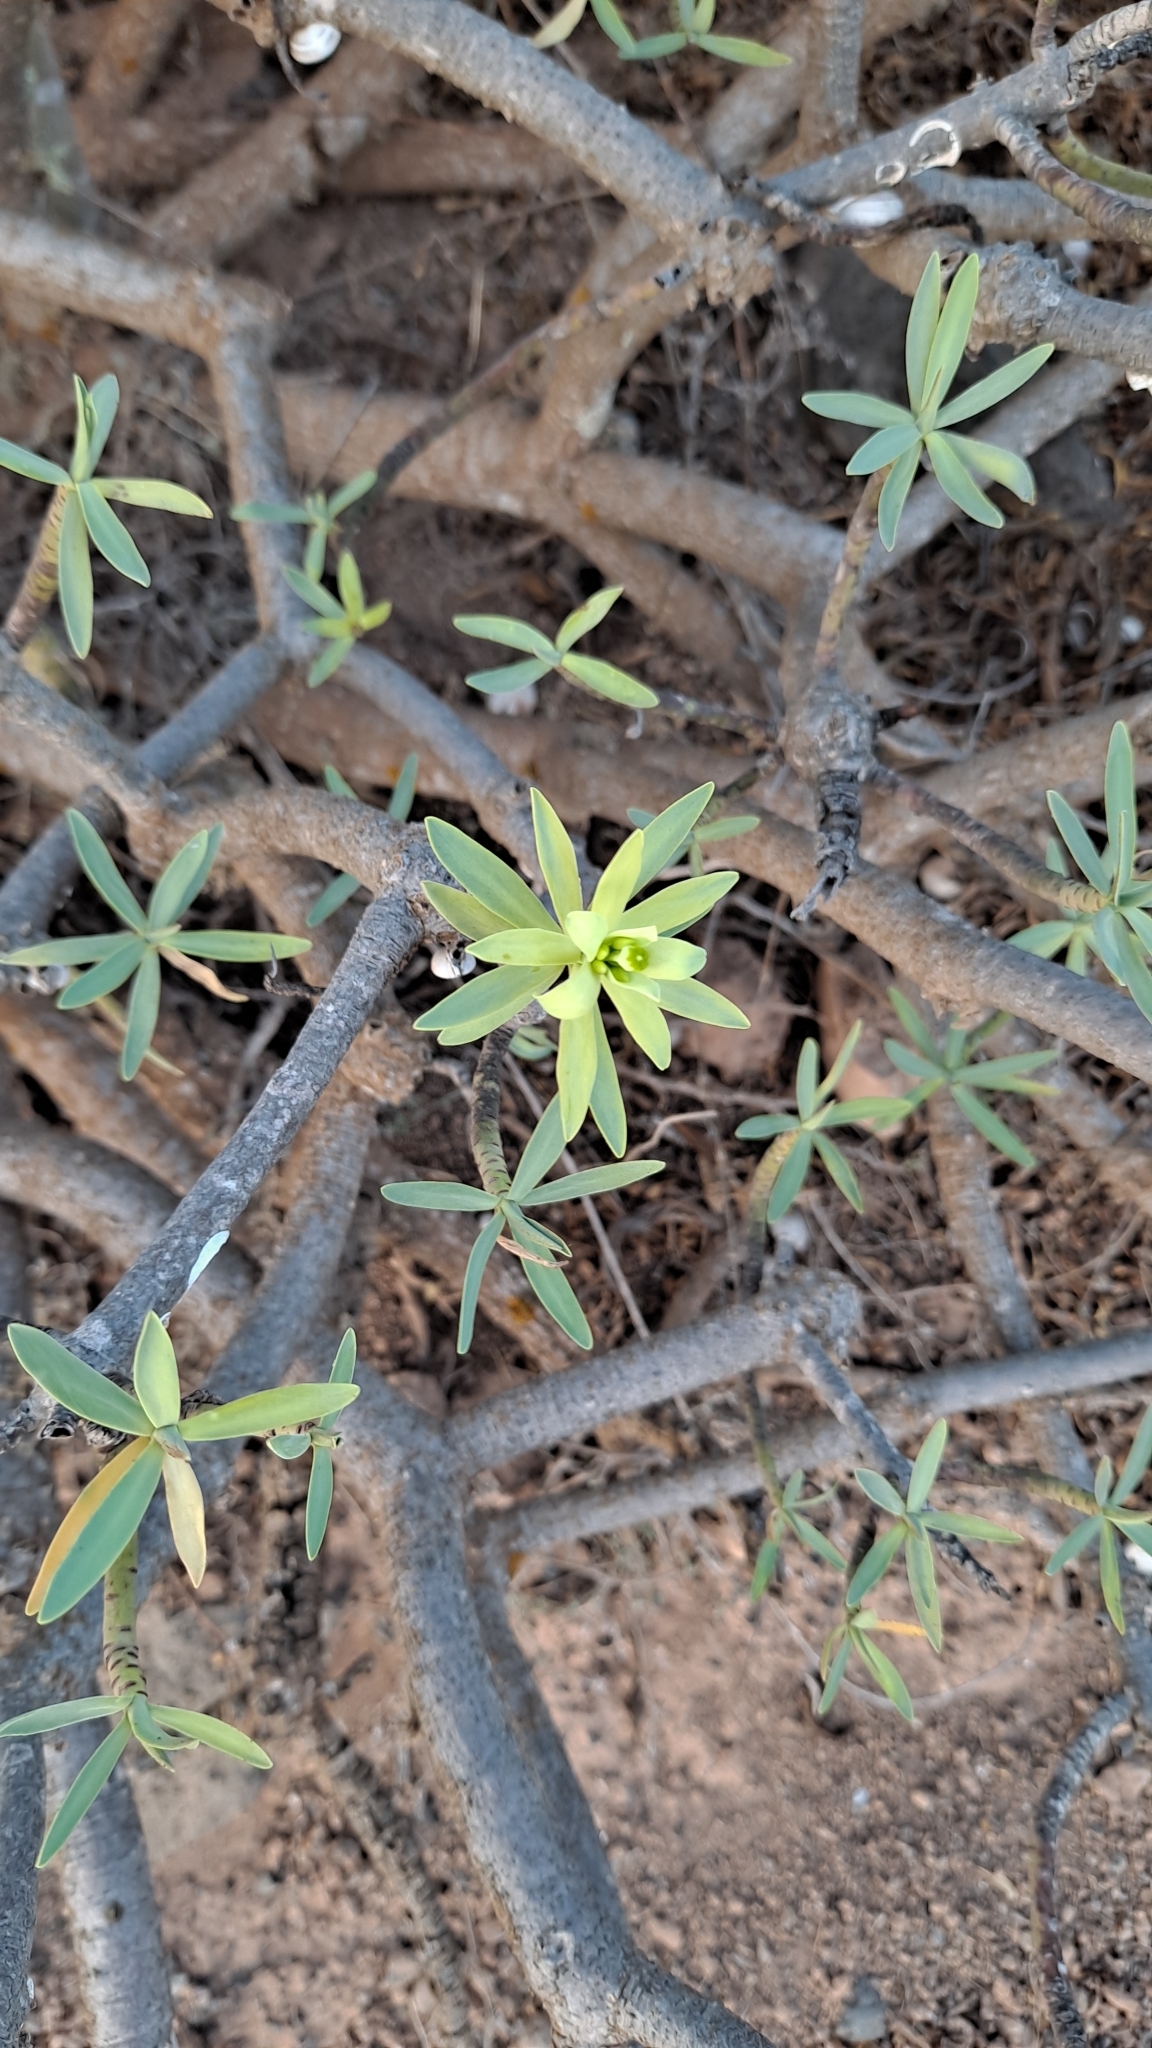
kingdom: Plantae
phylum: Tracheophyta
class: Magnoliopsida
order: Malpighiales
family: Euphorbiaceae
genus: Euphorbia
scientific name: Euphorbia regis-jubae
